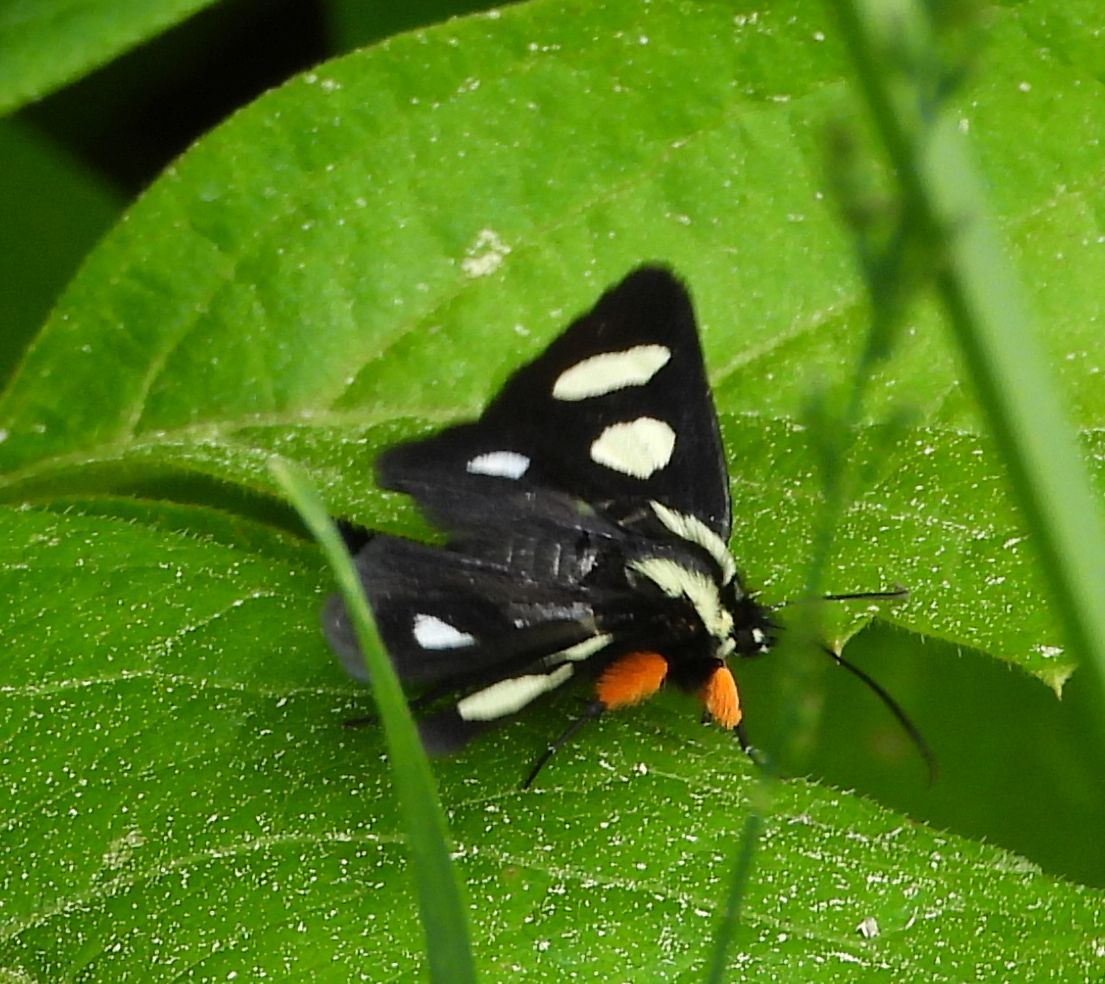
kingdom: Animalia
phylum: Arthropoda
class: Insecta
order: Lepidoptera
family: Noctuidae
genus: Alypia
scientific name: Alypia octomaculata
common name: Eight-spotted forester
